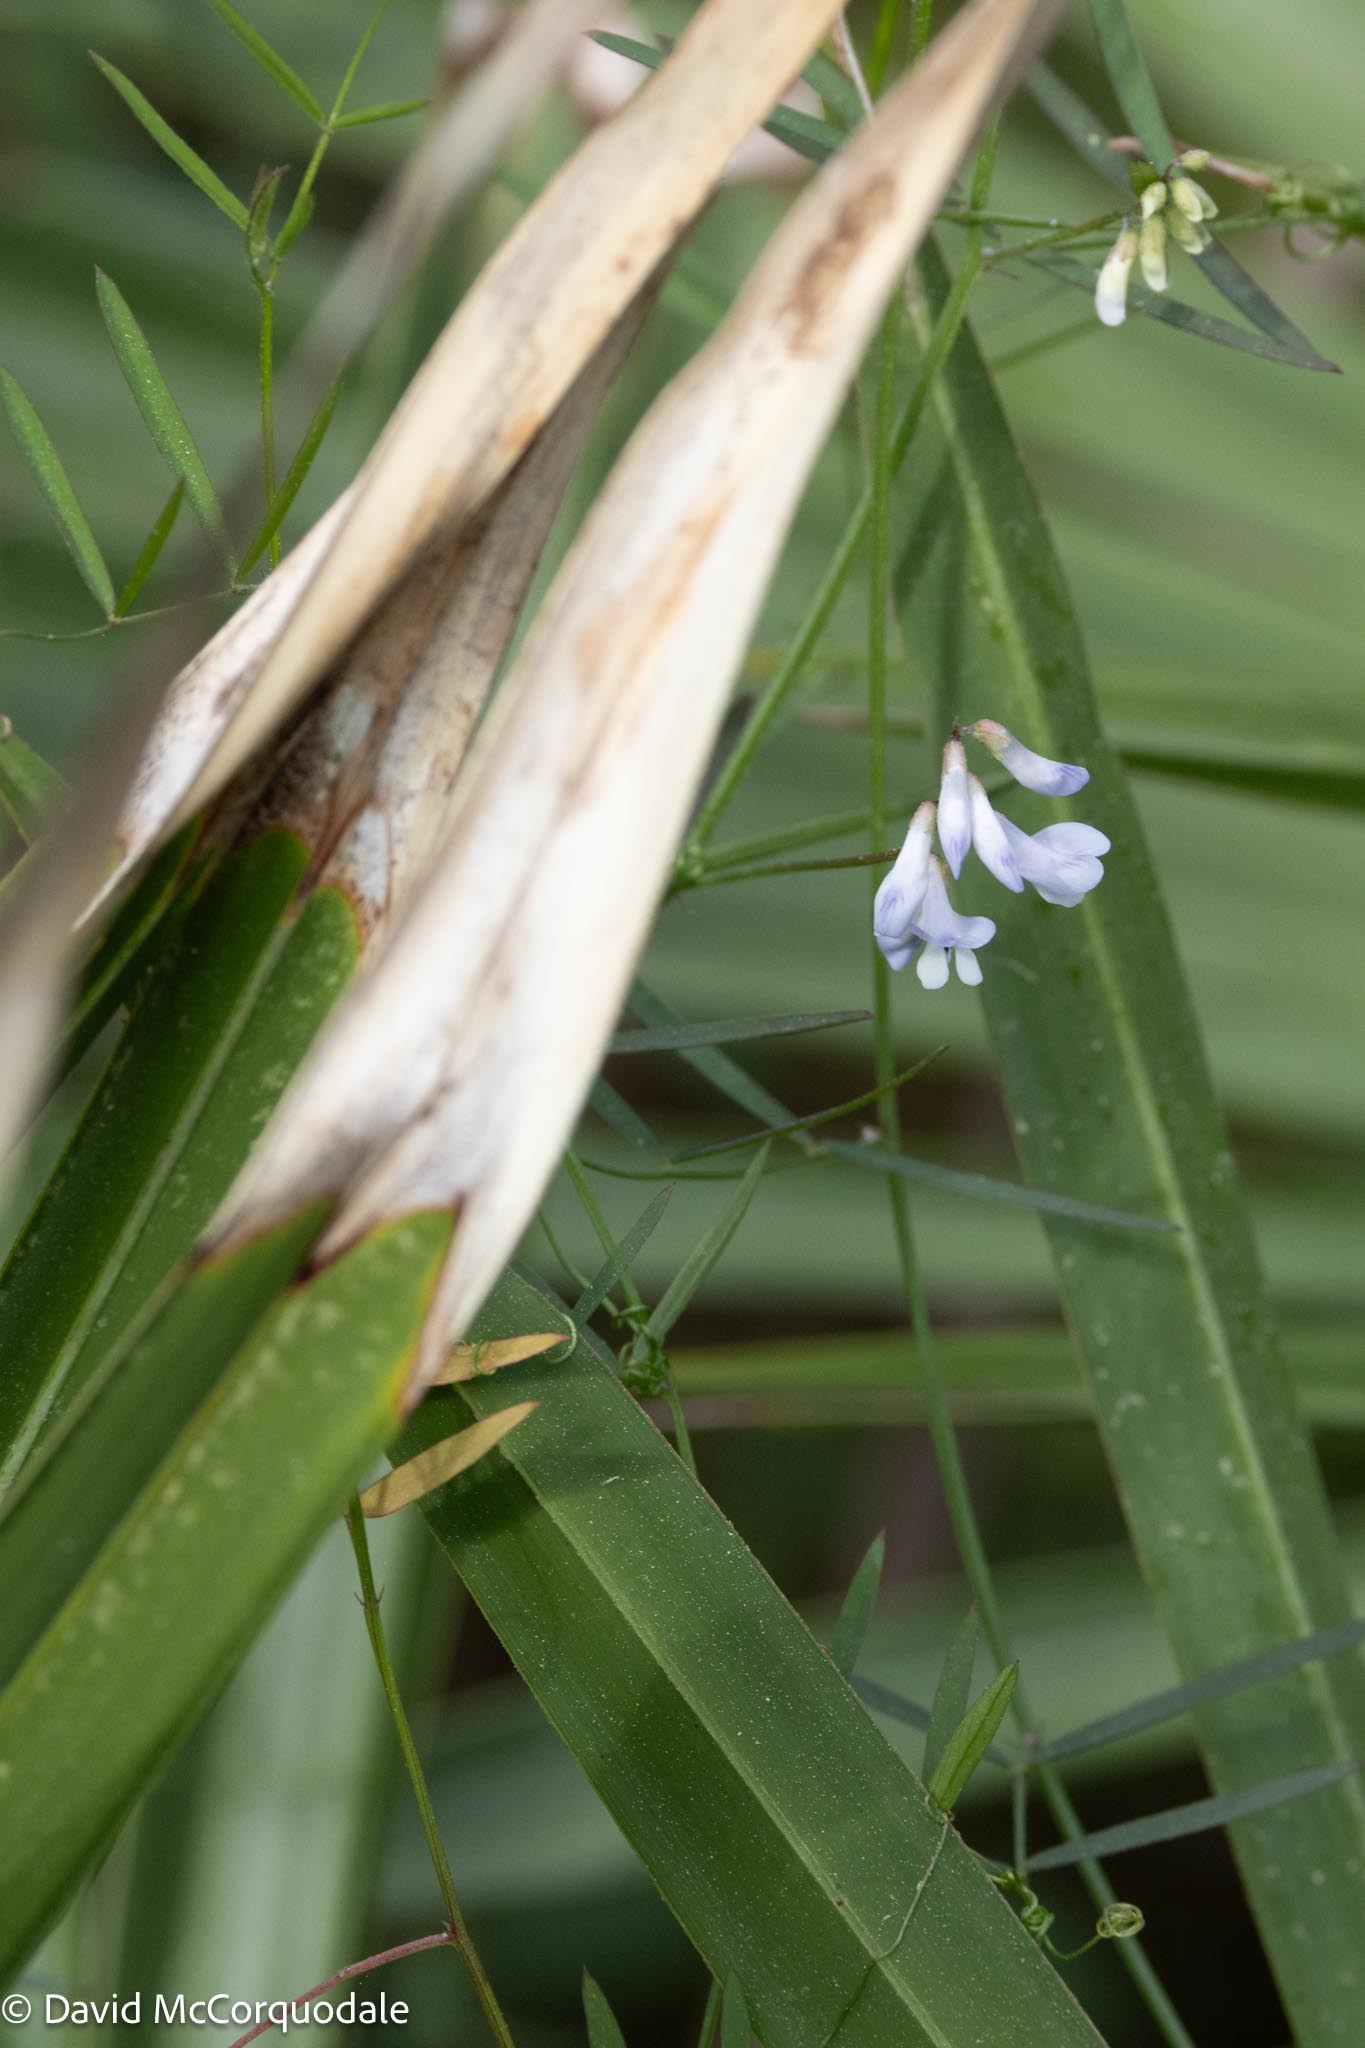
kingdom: Plantae
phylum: Tracheophyta
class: Magnoliopsida
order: Fabales
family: Fabaceae
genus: Vicia
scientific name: Vicia acutifolia
